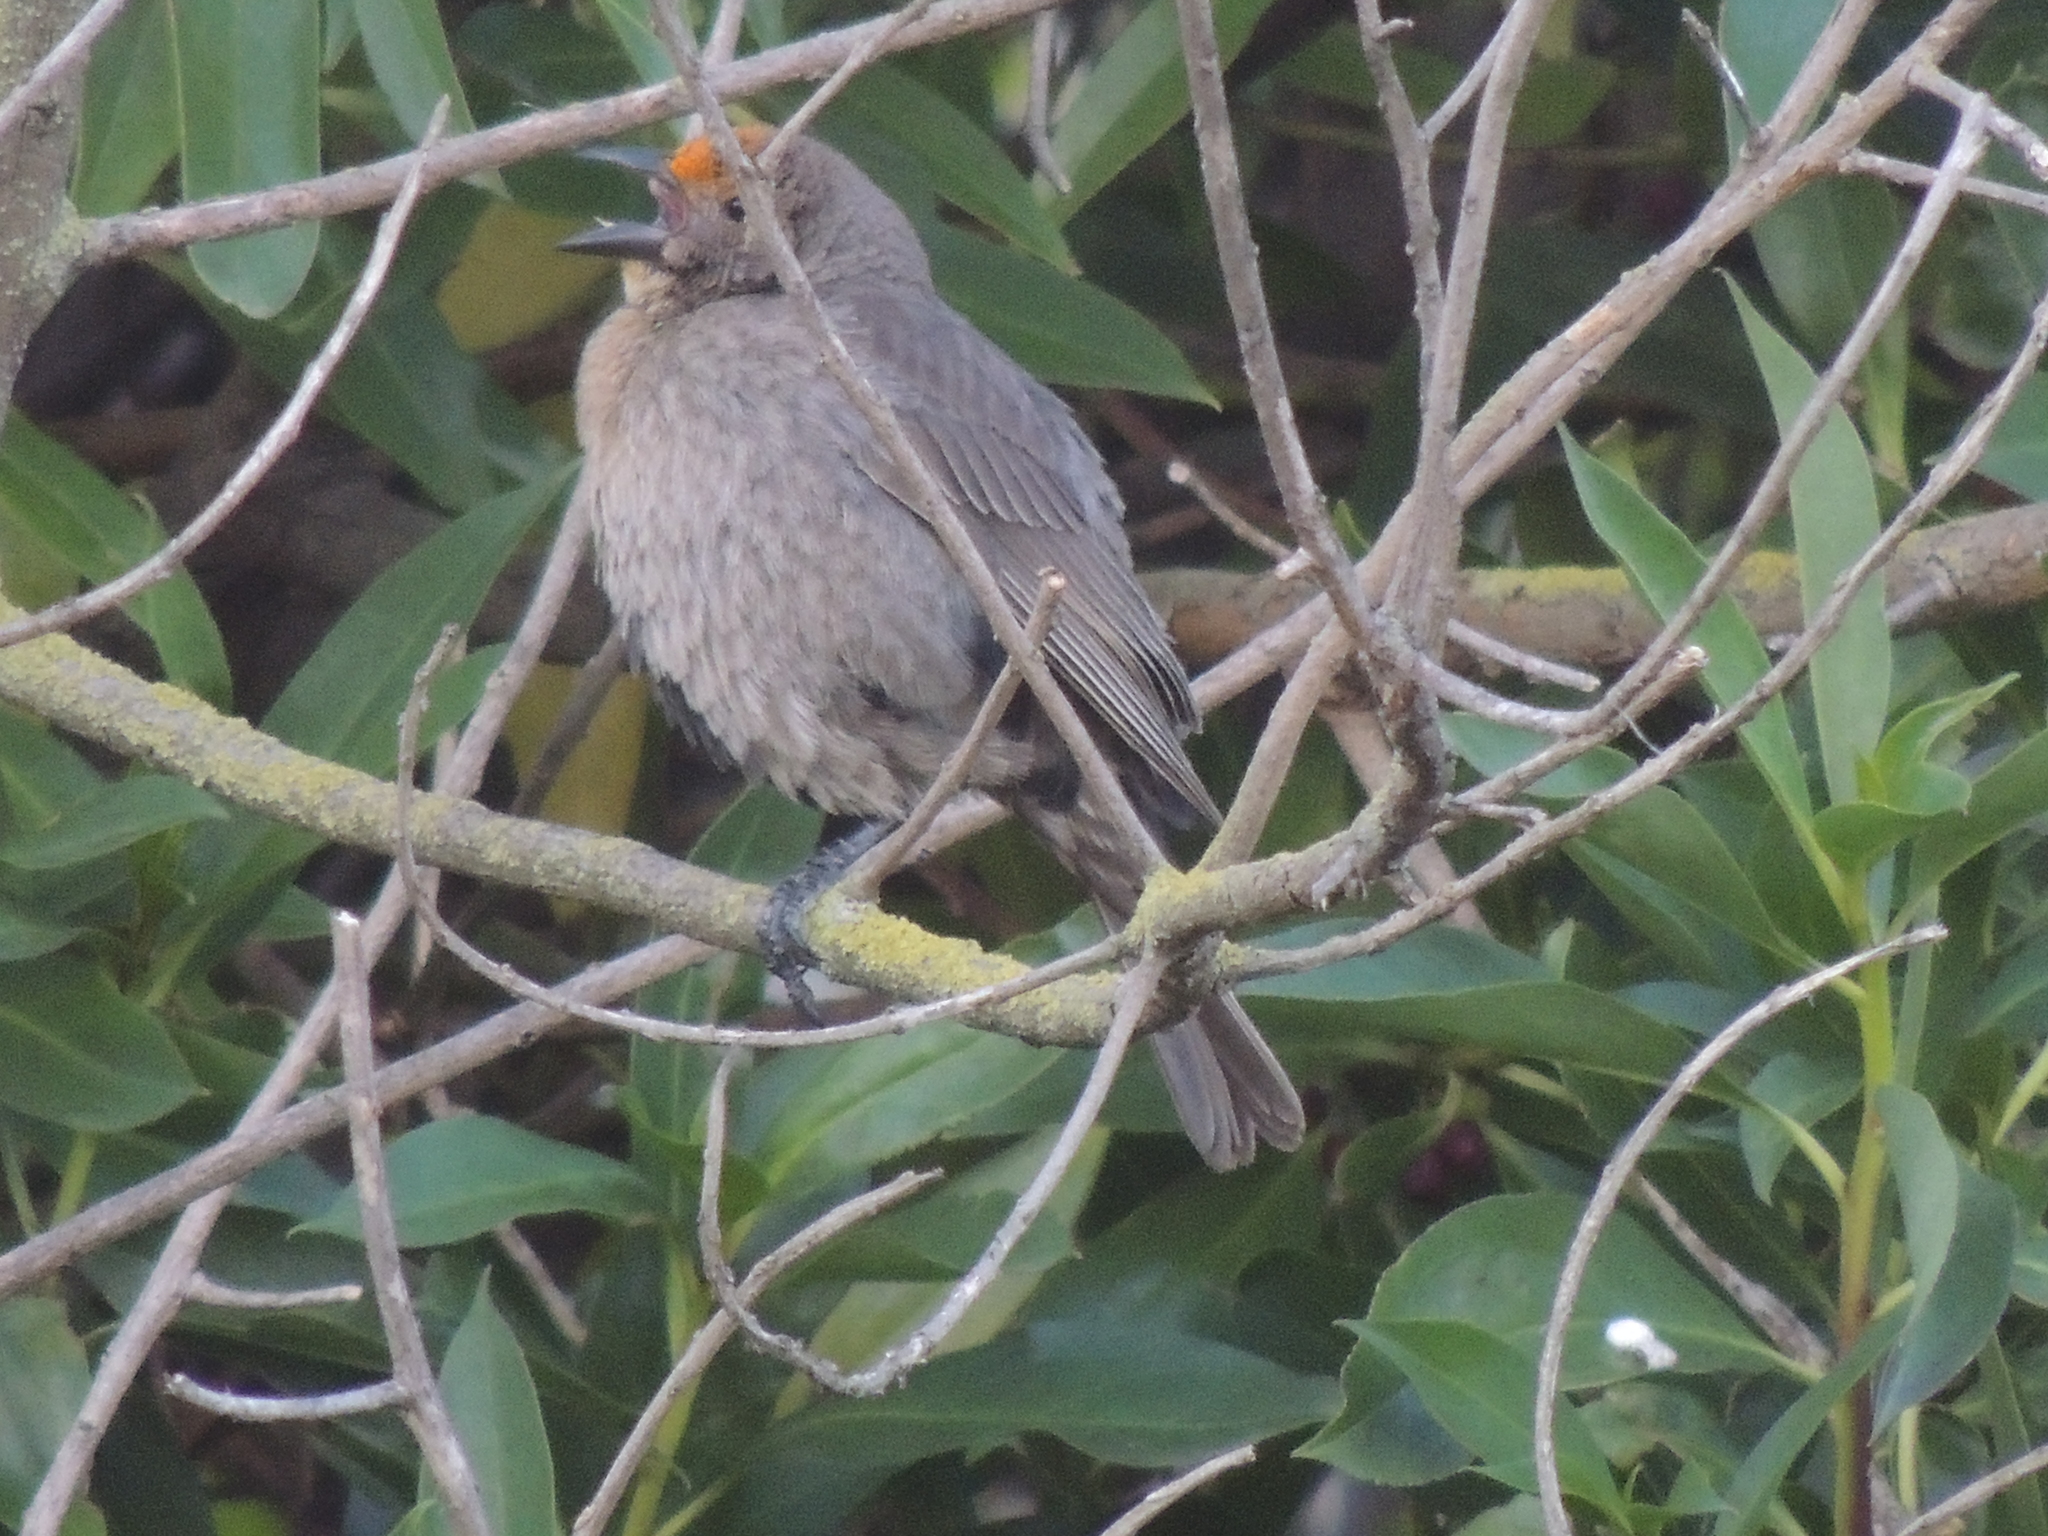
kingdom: Animalia
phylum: Chordata
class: Aves
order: Passeriformes
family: Icteridae
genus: Molothrus
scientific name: Molothrus bonariensis
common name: Shiny cowbird
